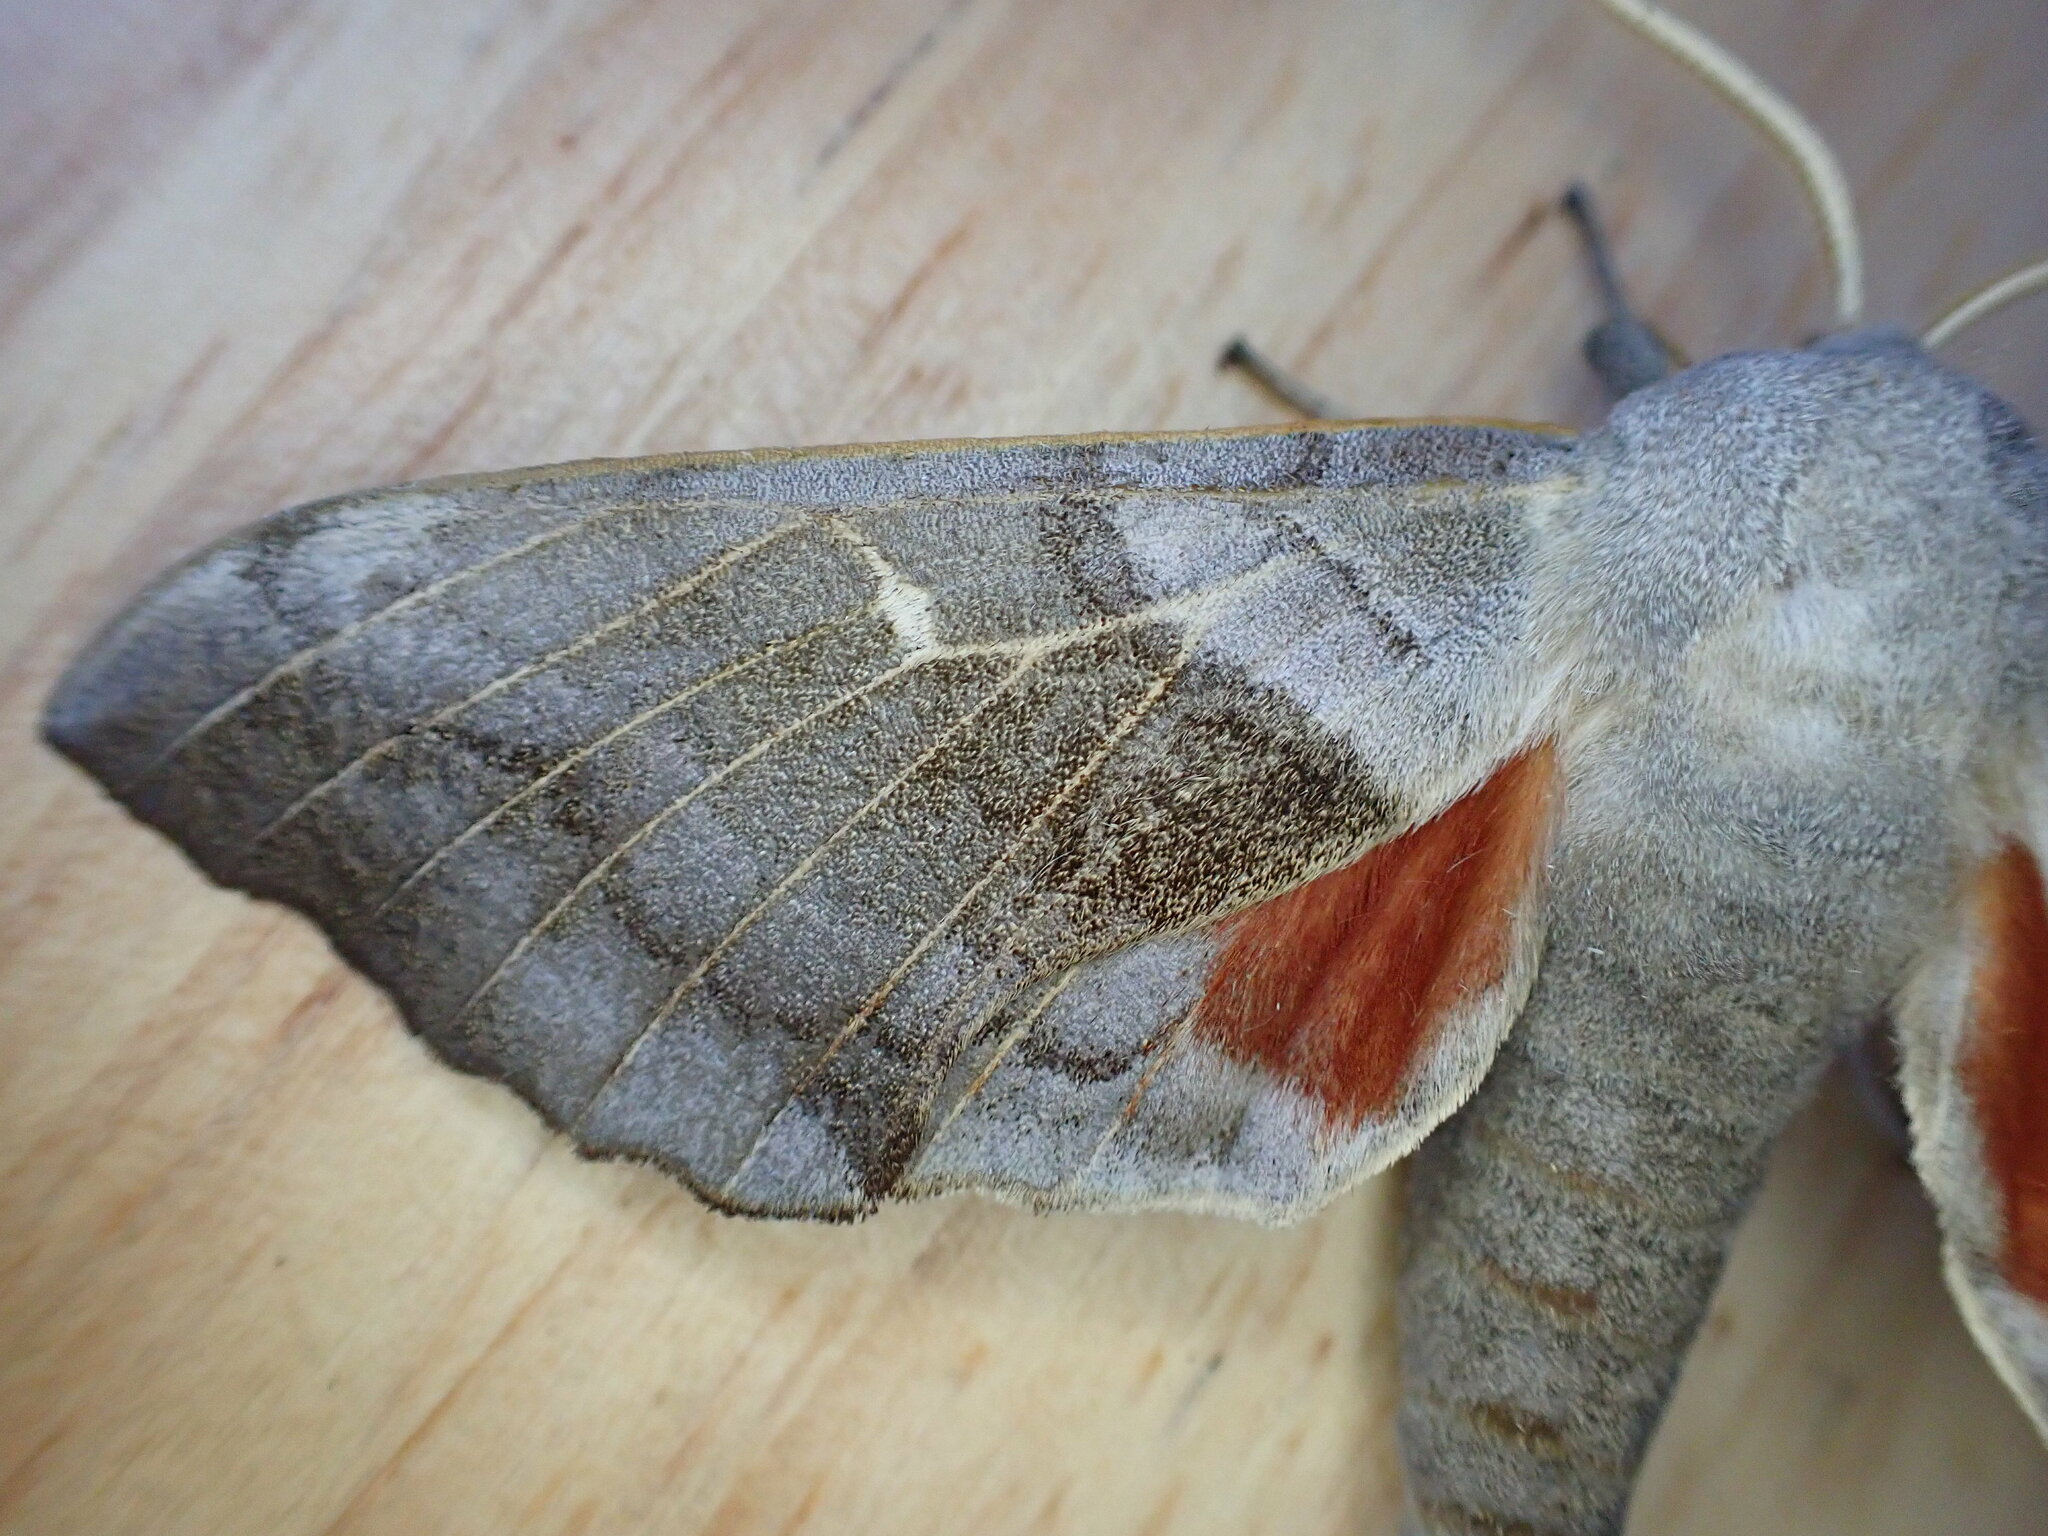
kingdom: Animalia
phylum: Arthropoda
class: Insecta
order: Lepidoptera
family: Sphingidae
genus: Laothoe
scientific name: Laothoe populi
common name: Poplar hawk-moth
